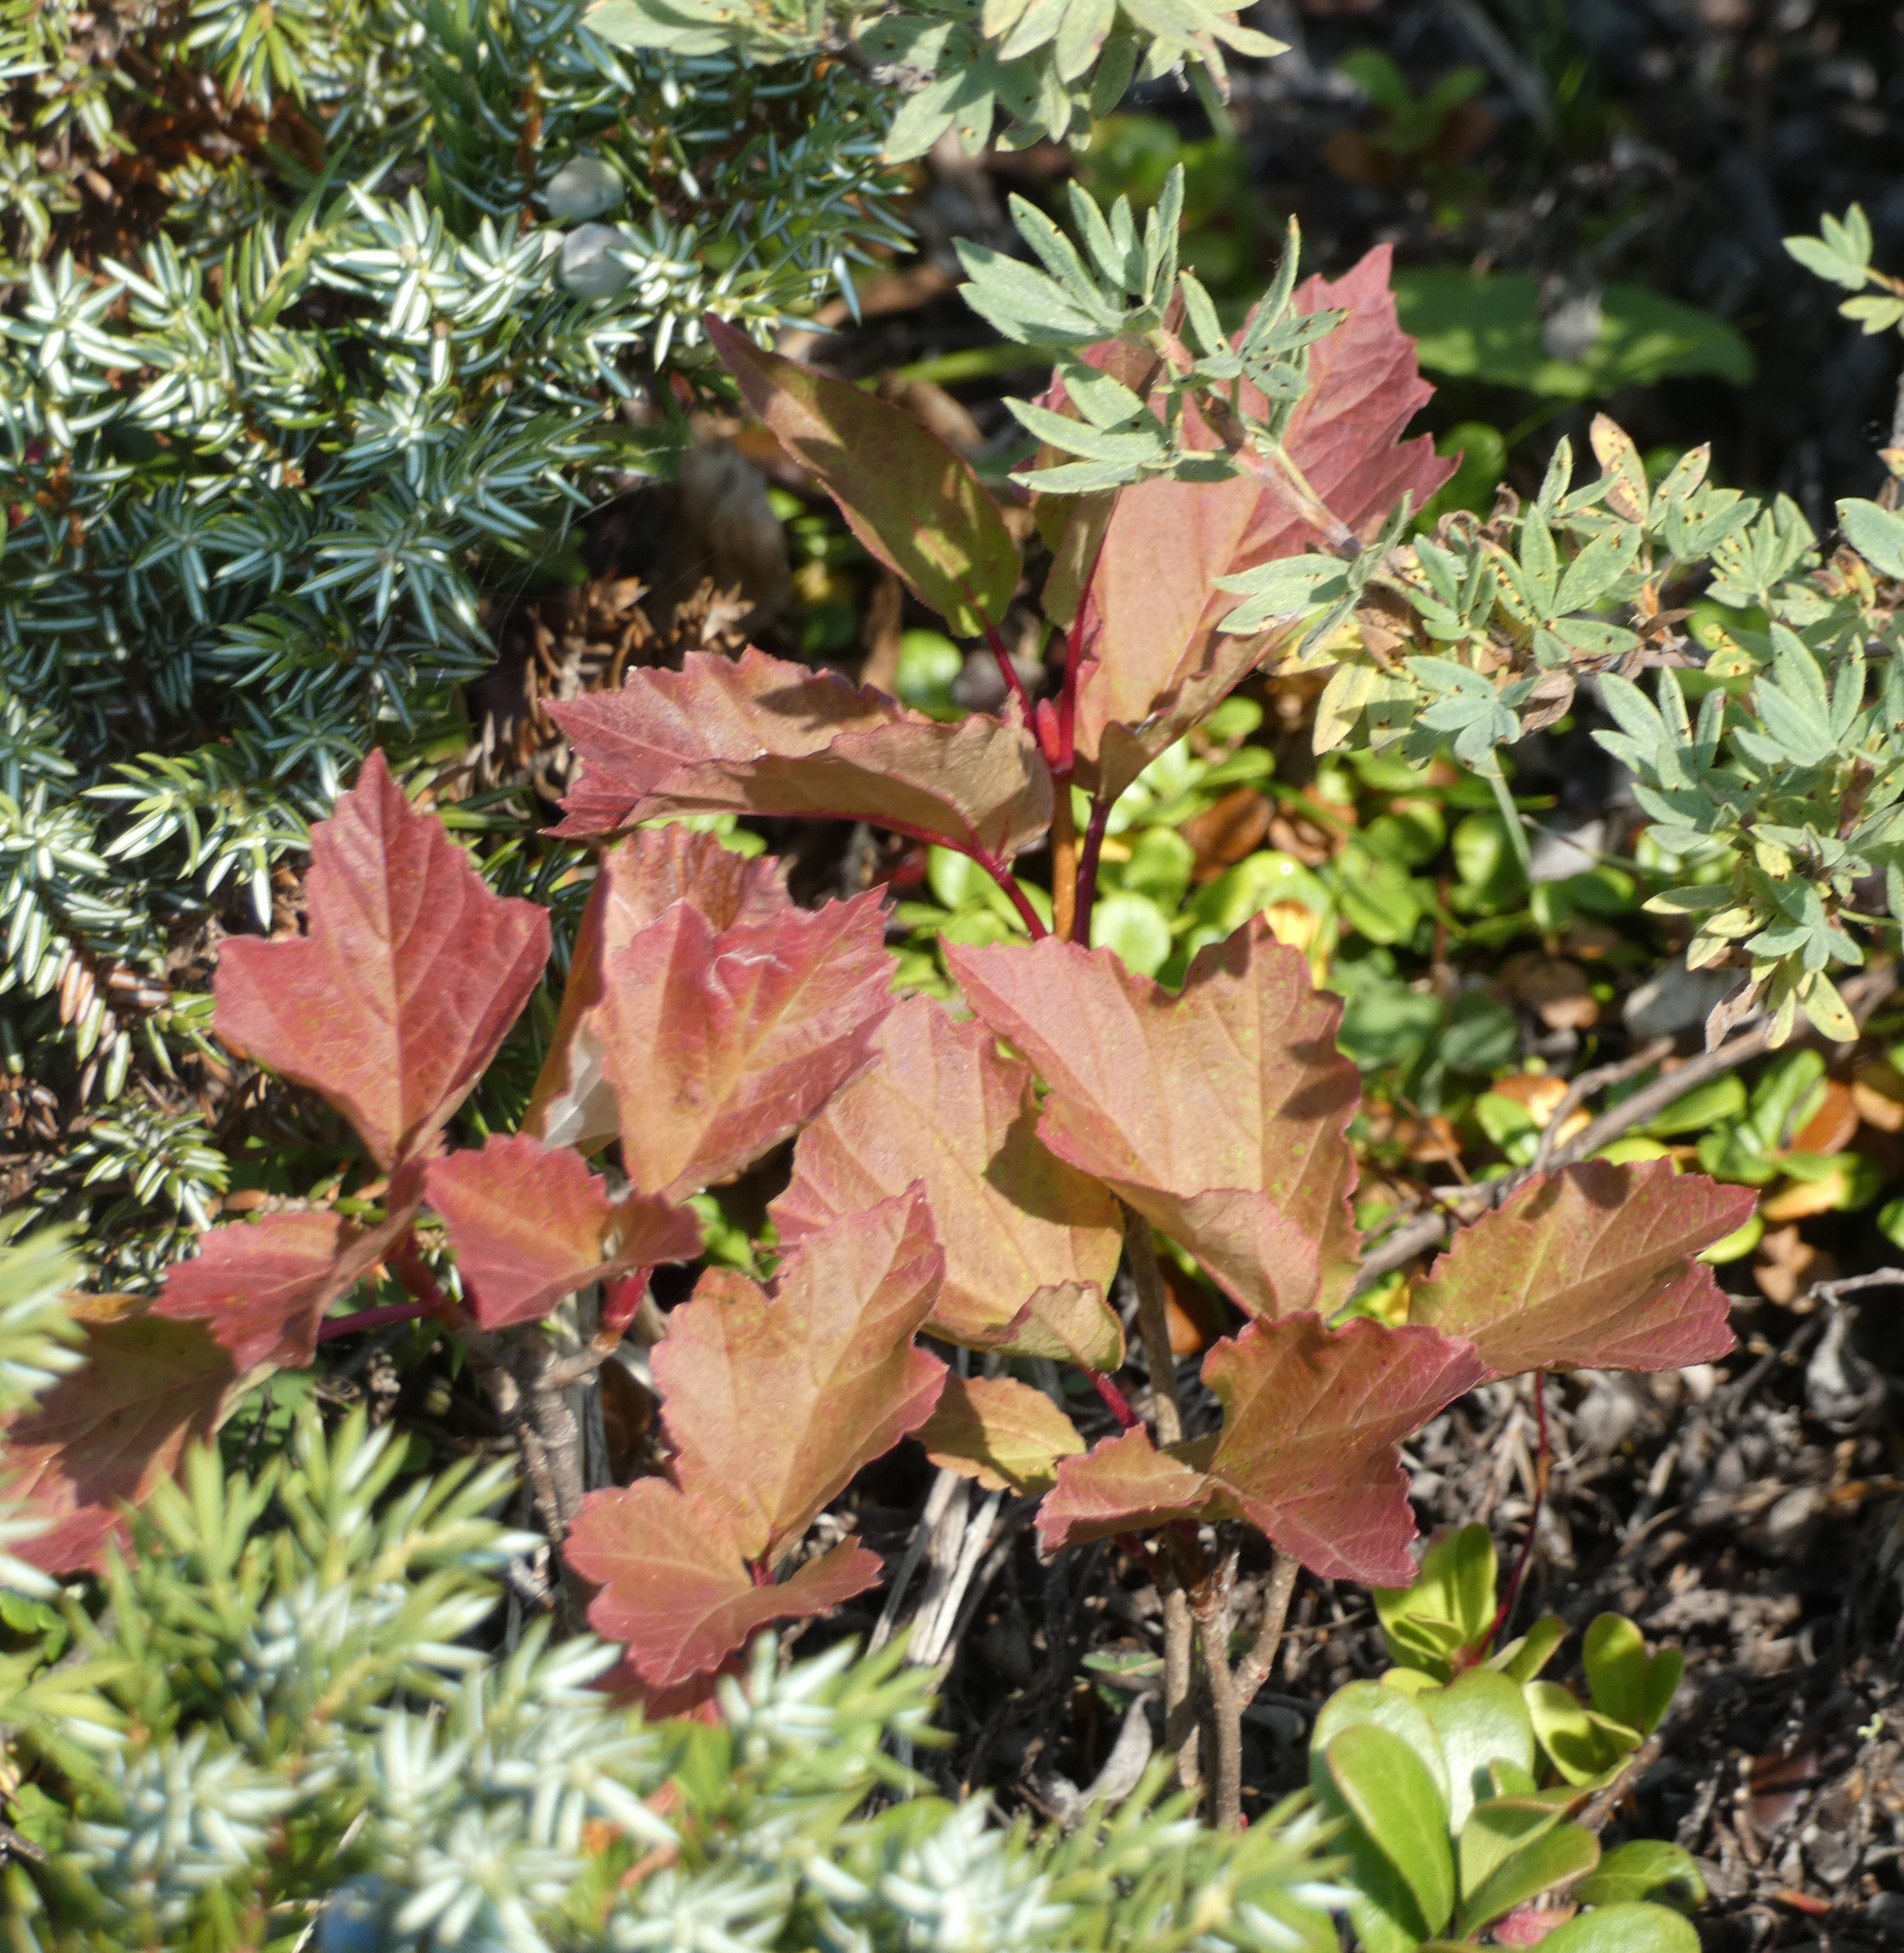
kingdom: Plantae
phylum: Tracheophyta
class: Magnoliopsida
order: Dipsacales
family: Viburnaceae
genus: Viburnum
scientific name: Viburnum edule
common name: Mooseberry
